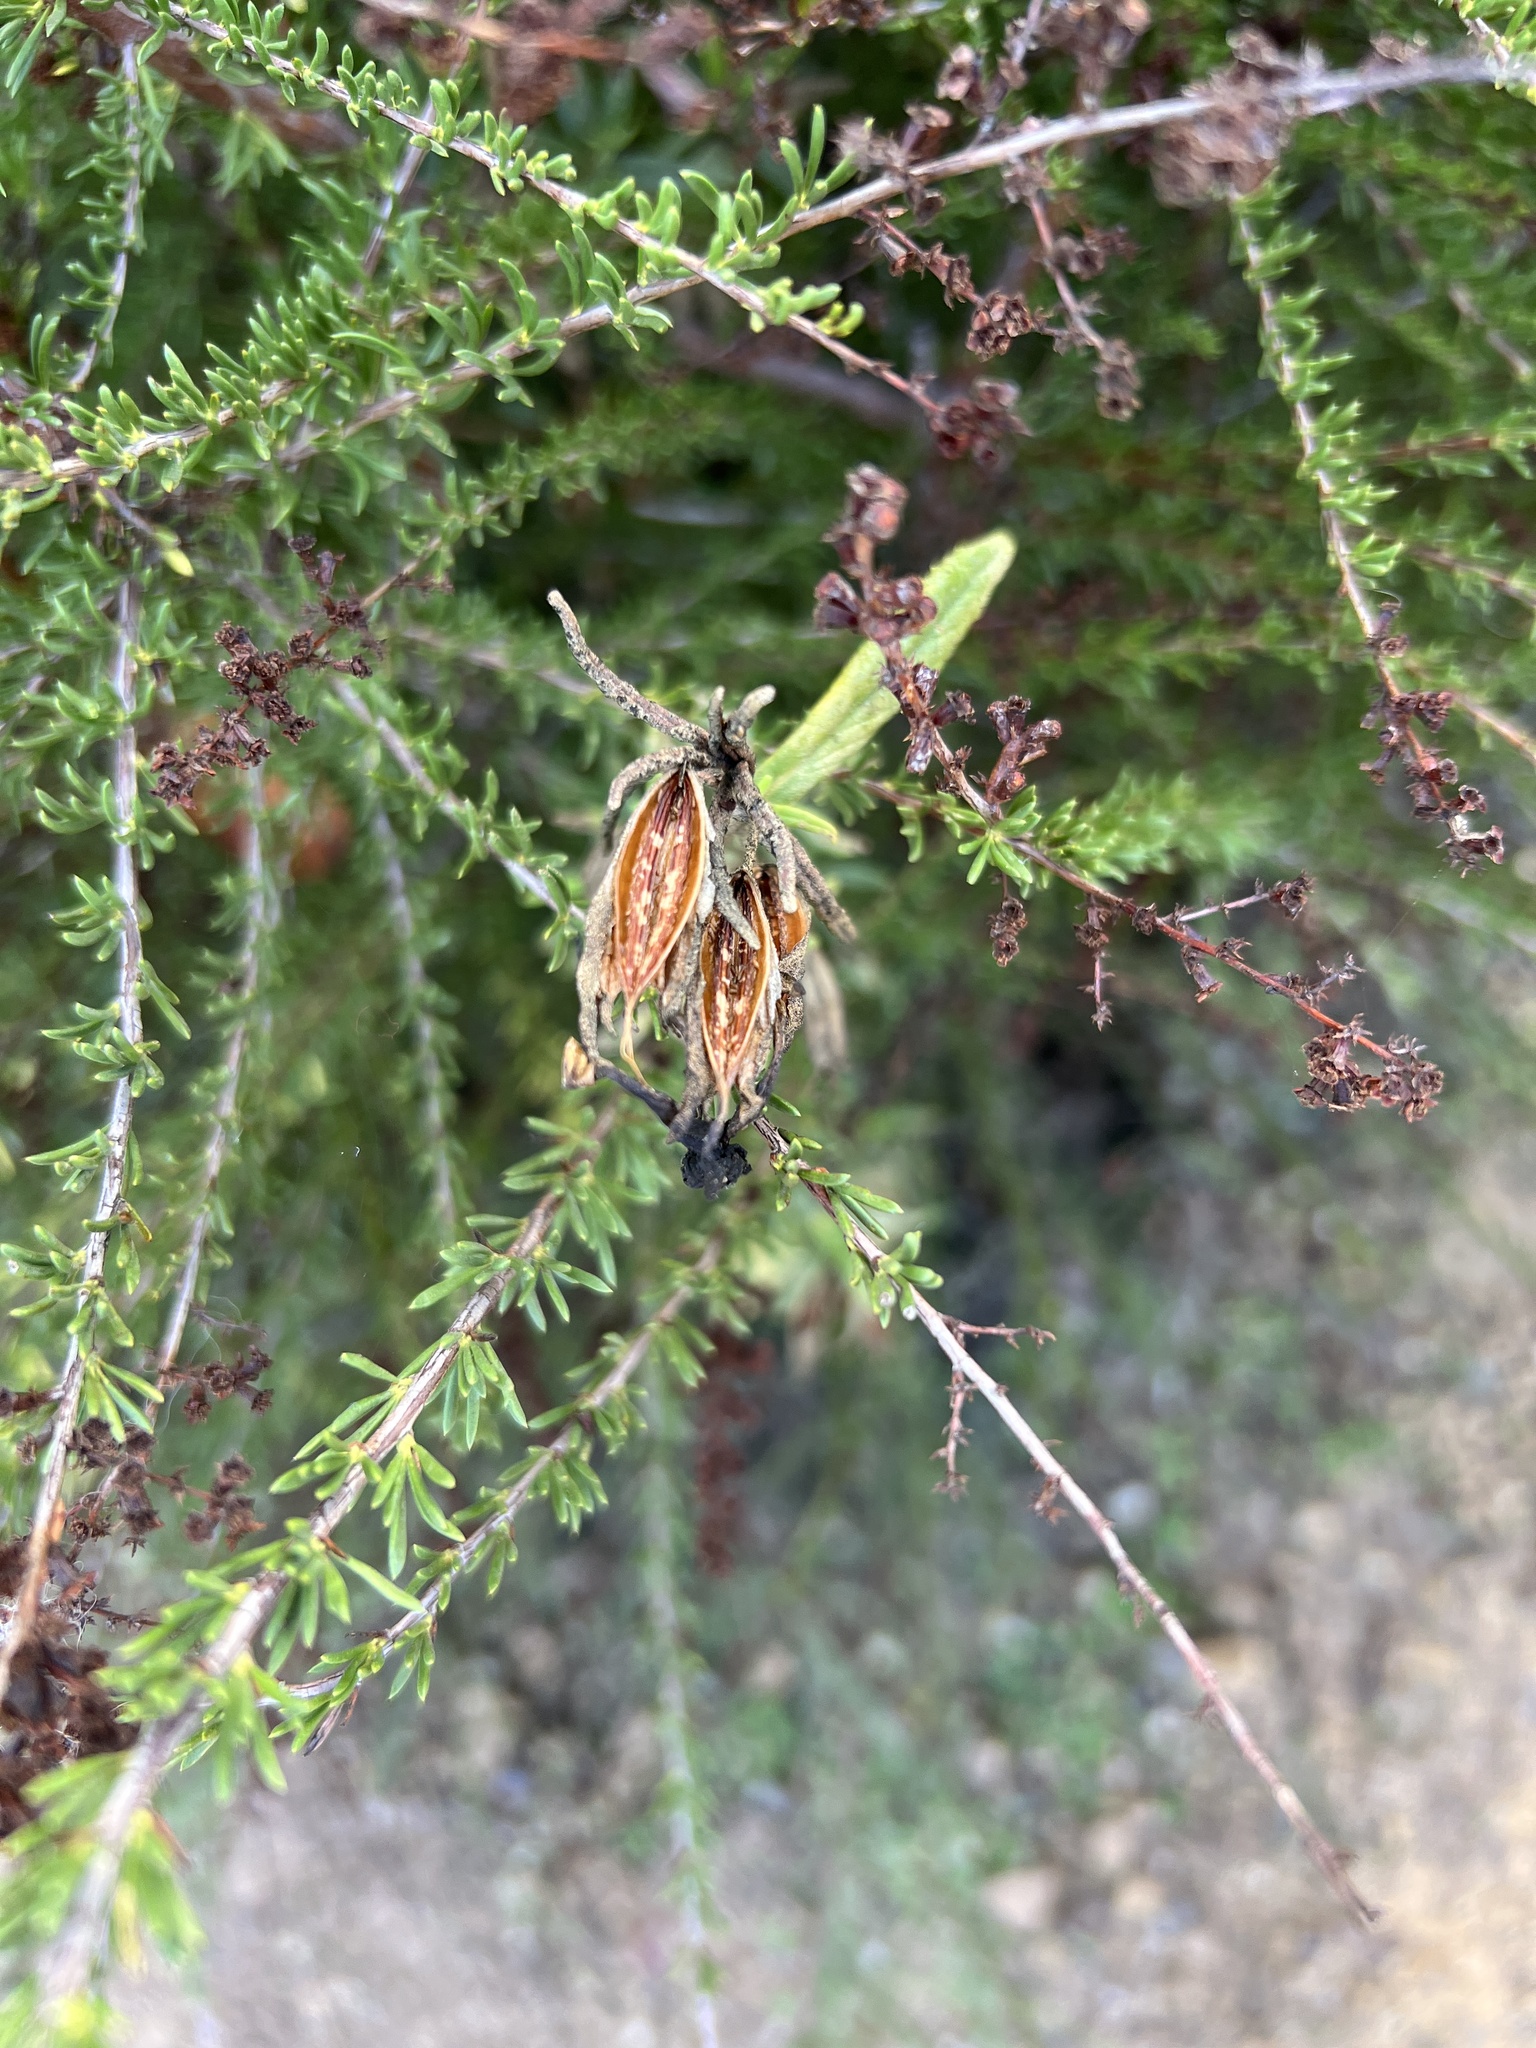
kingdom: Plantae
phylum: Tracheophyta
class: Magnoliopsida
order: Lamiales
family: Phrymaceae
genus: Diplacus
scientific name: Diplacus aurantiacus
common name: Bush monkey-flower
